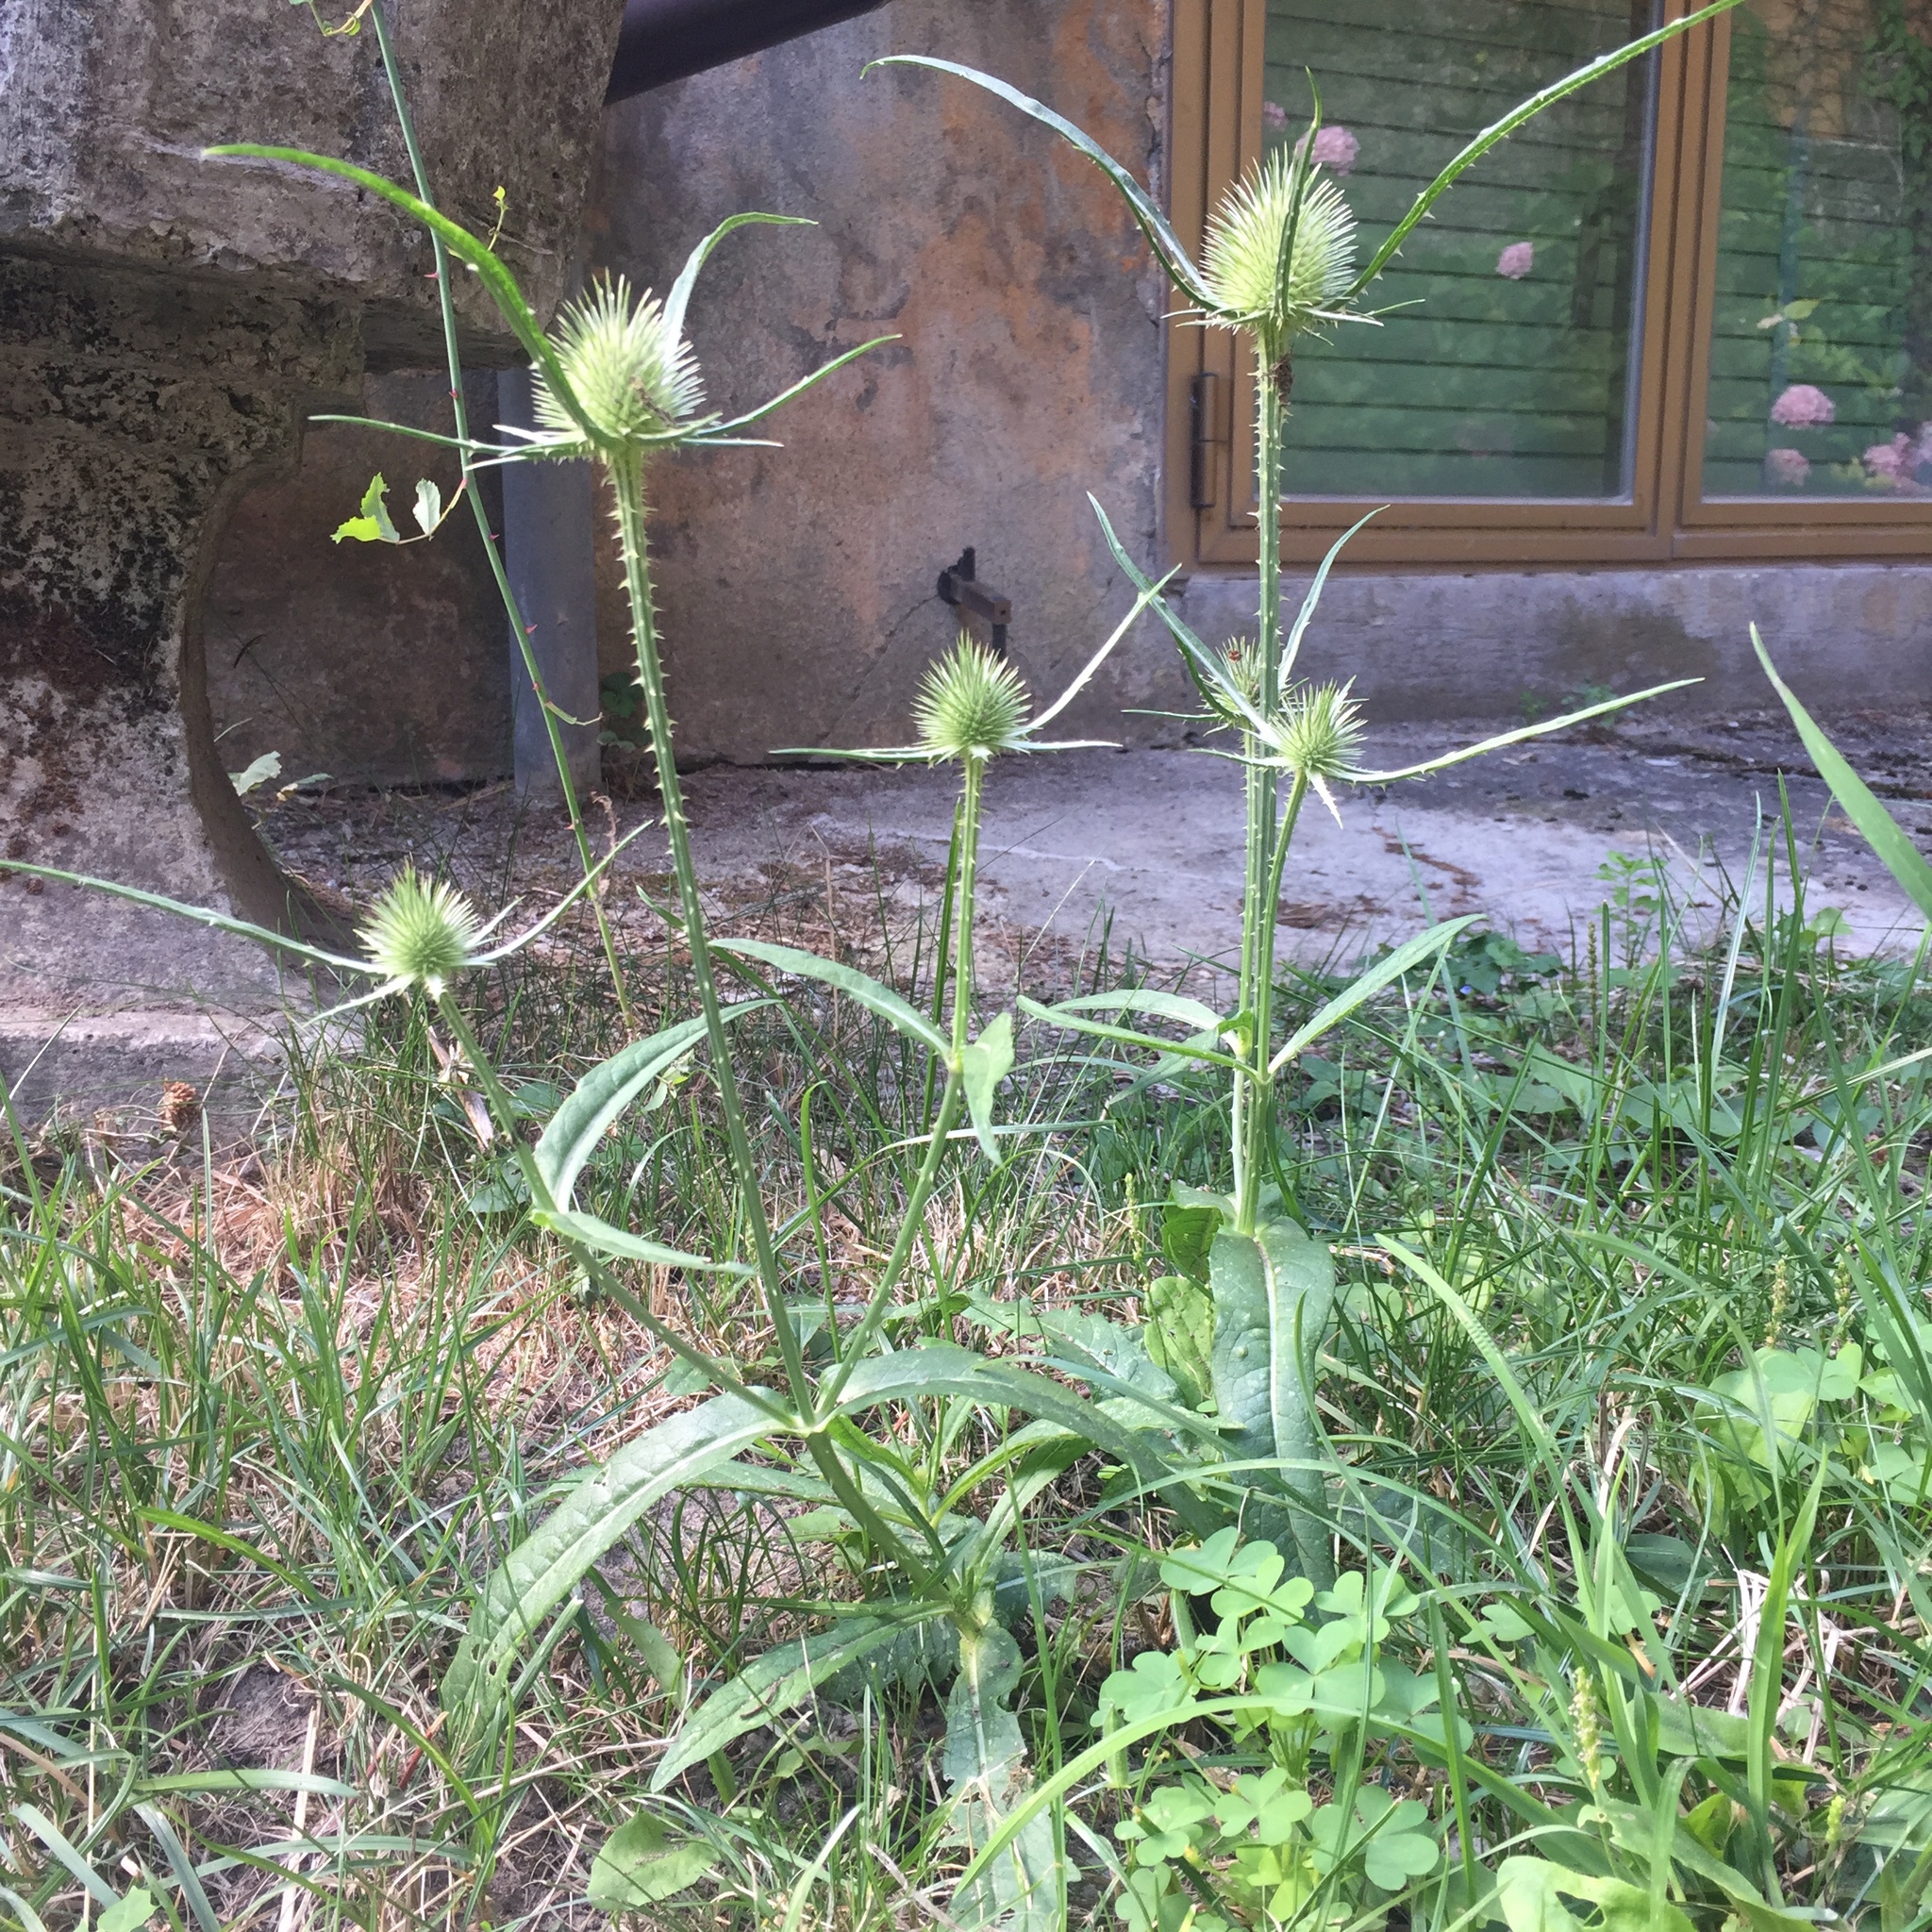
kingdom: Plantae
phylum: Tracheophyta
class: Magnoliopsida
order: Dipsacales
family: Caprifoliaceae
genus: Dipsacus
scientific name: Dipsacus fullonum
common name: Teasel
